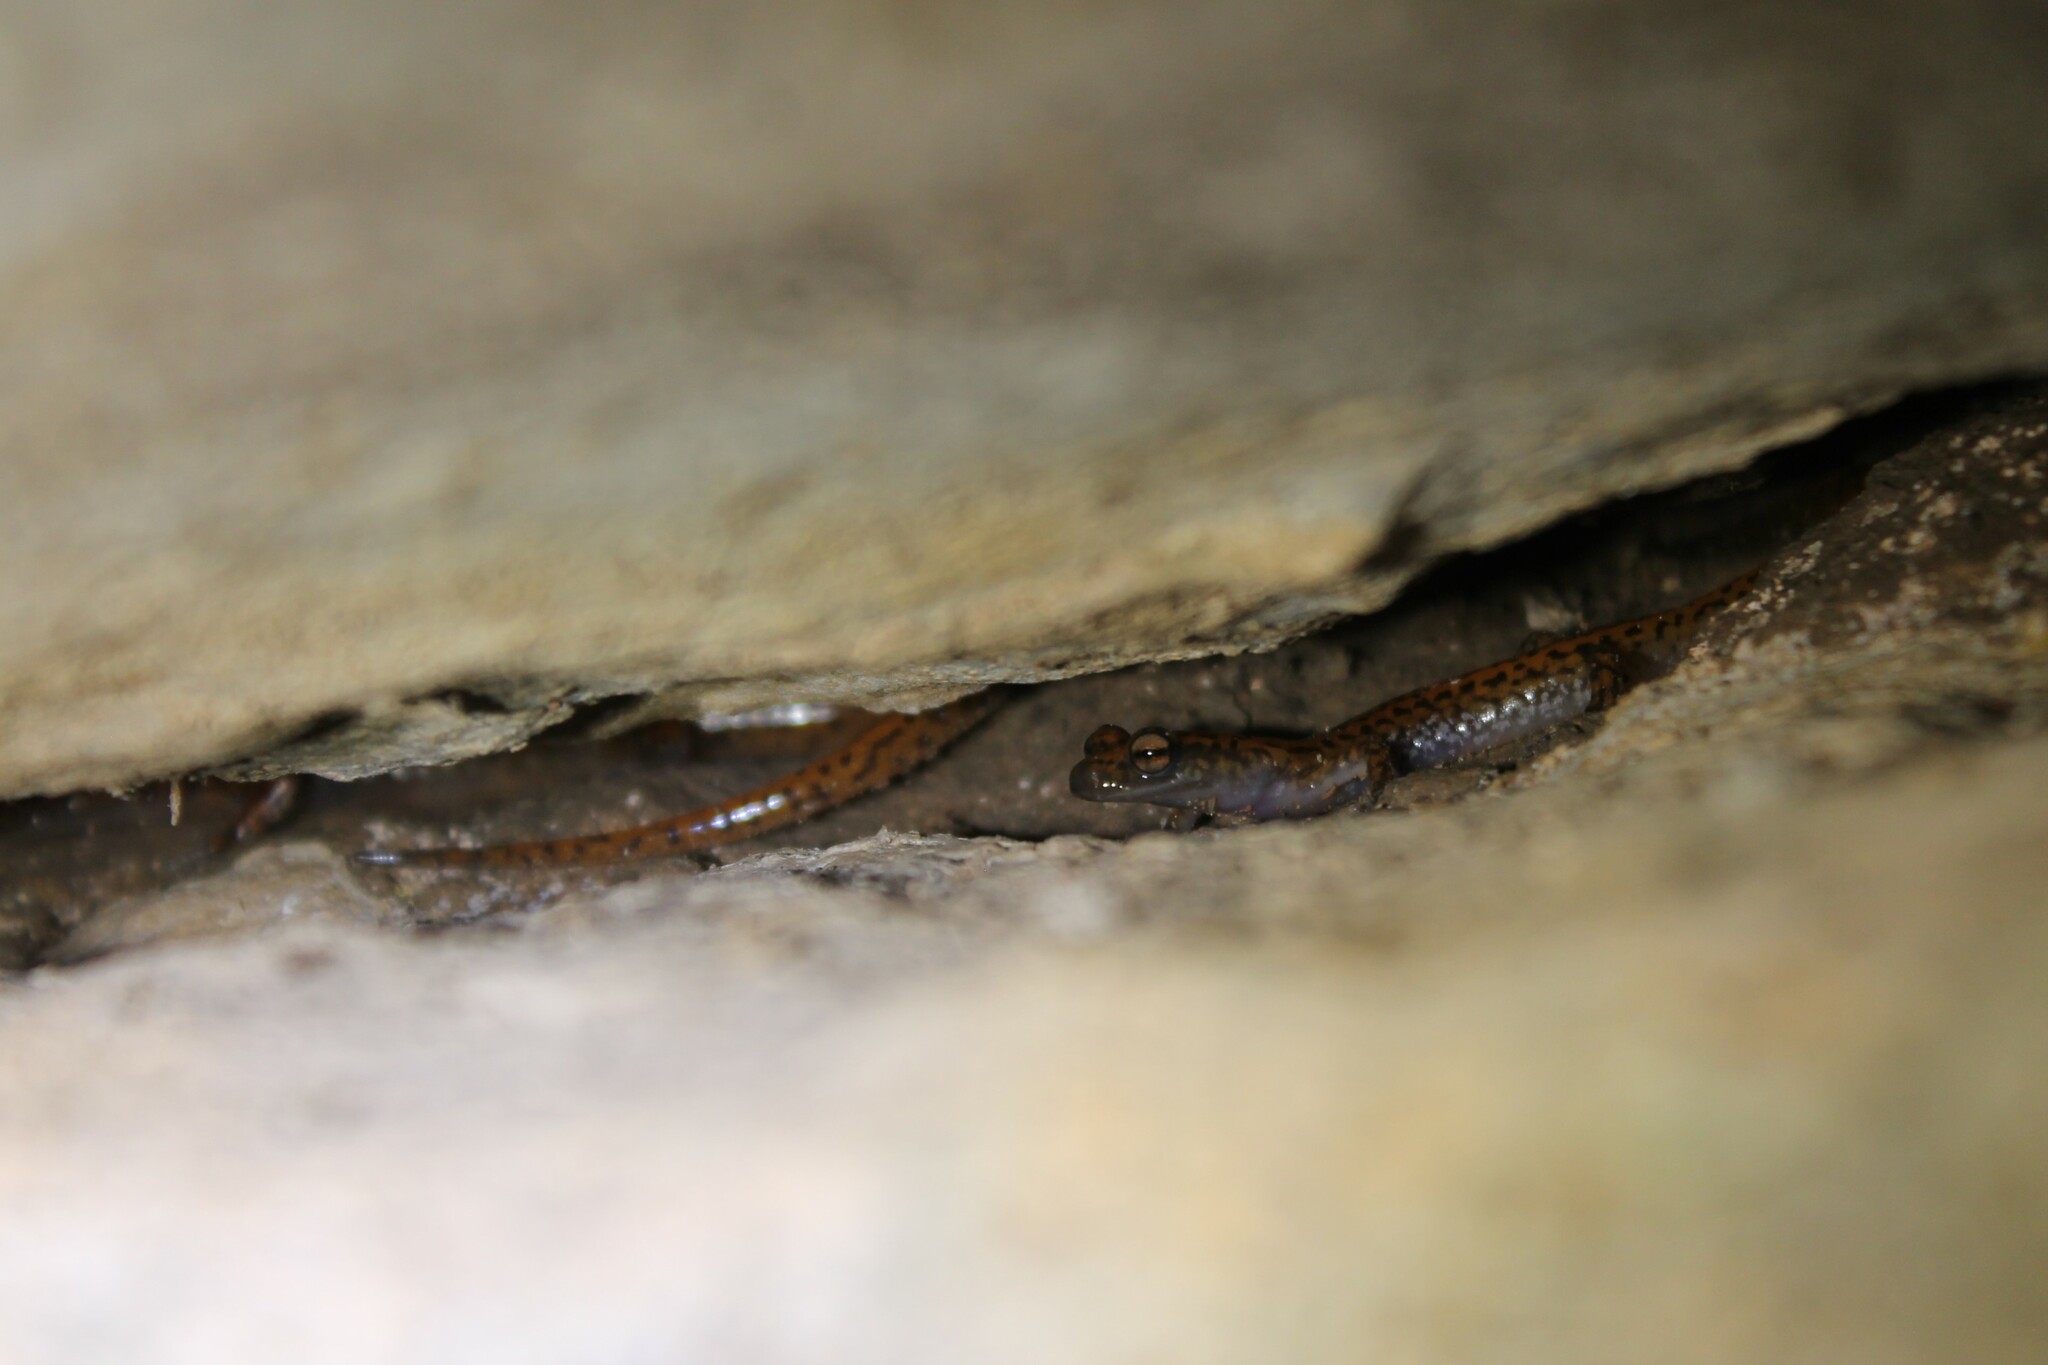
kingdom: Animalia
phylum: Chordata
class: Amphibia
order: Caudata
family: Plethodontidae
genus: Eurycea
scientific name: Eurycea lucifuga
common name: Cave salamander
